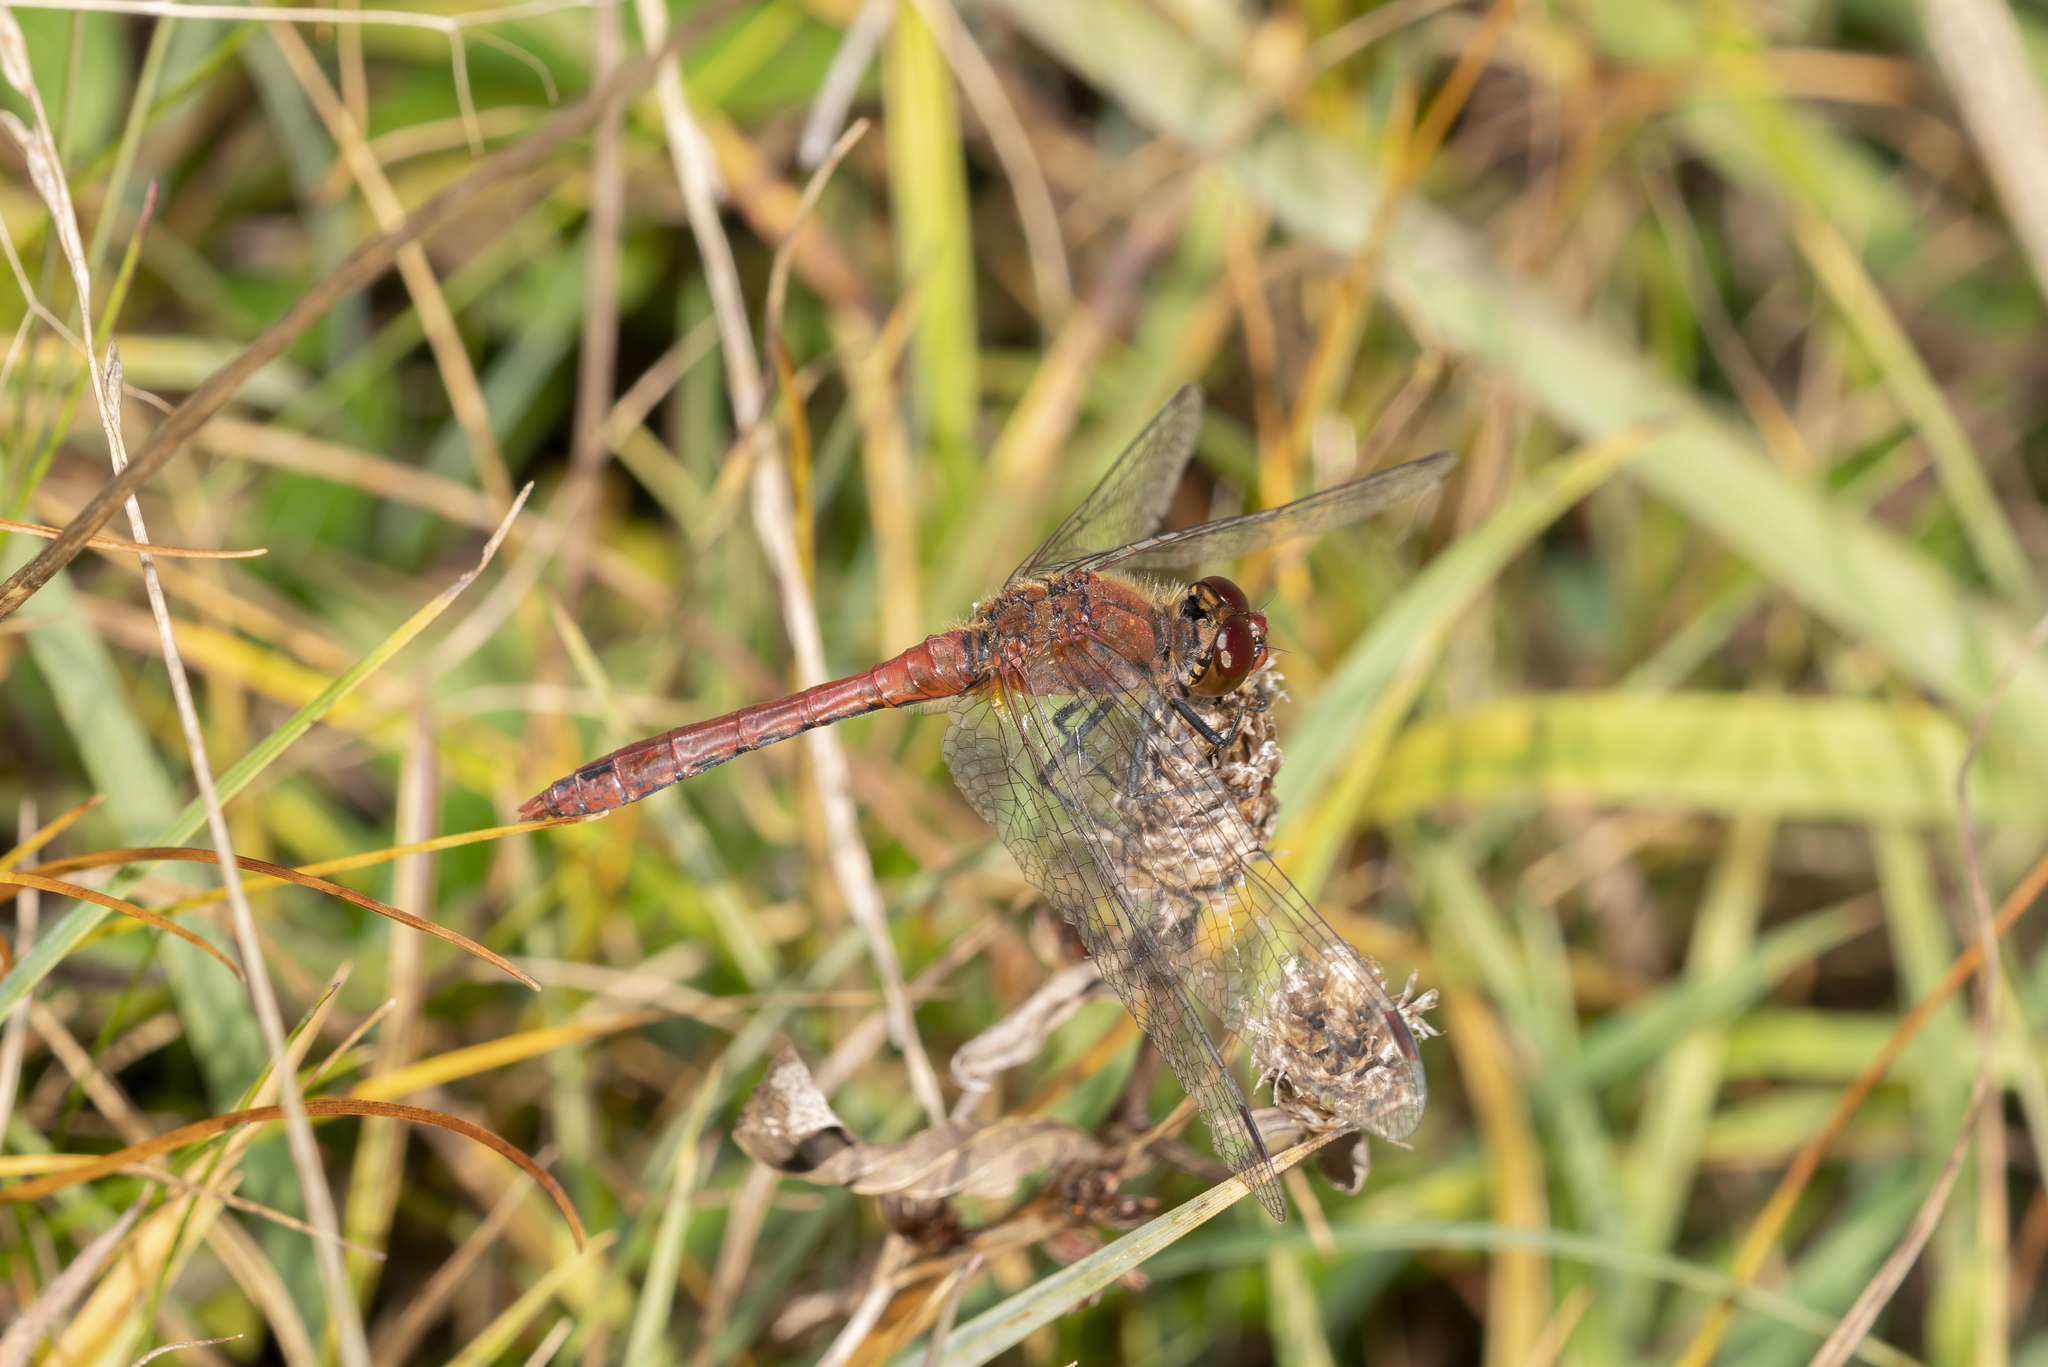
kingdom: Animalia
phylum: Arthropoda
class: Insecta
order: Odonata
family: Libellulidae
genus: Sympetrum
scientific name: Sympetrum sanguineum
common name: Ruddy darter
